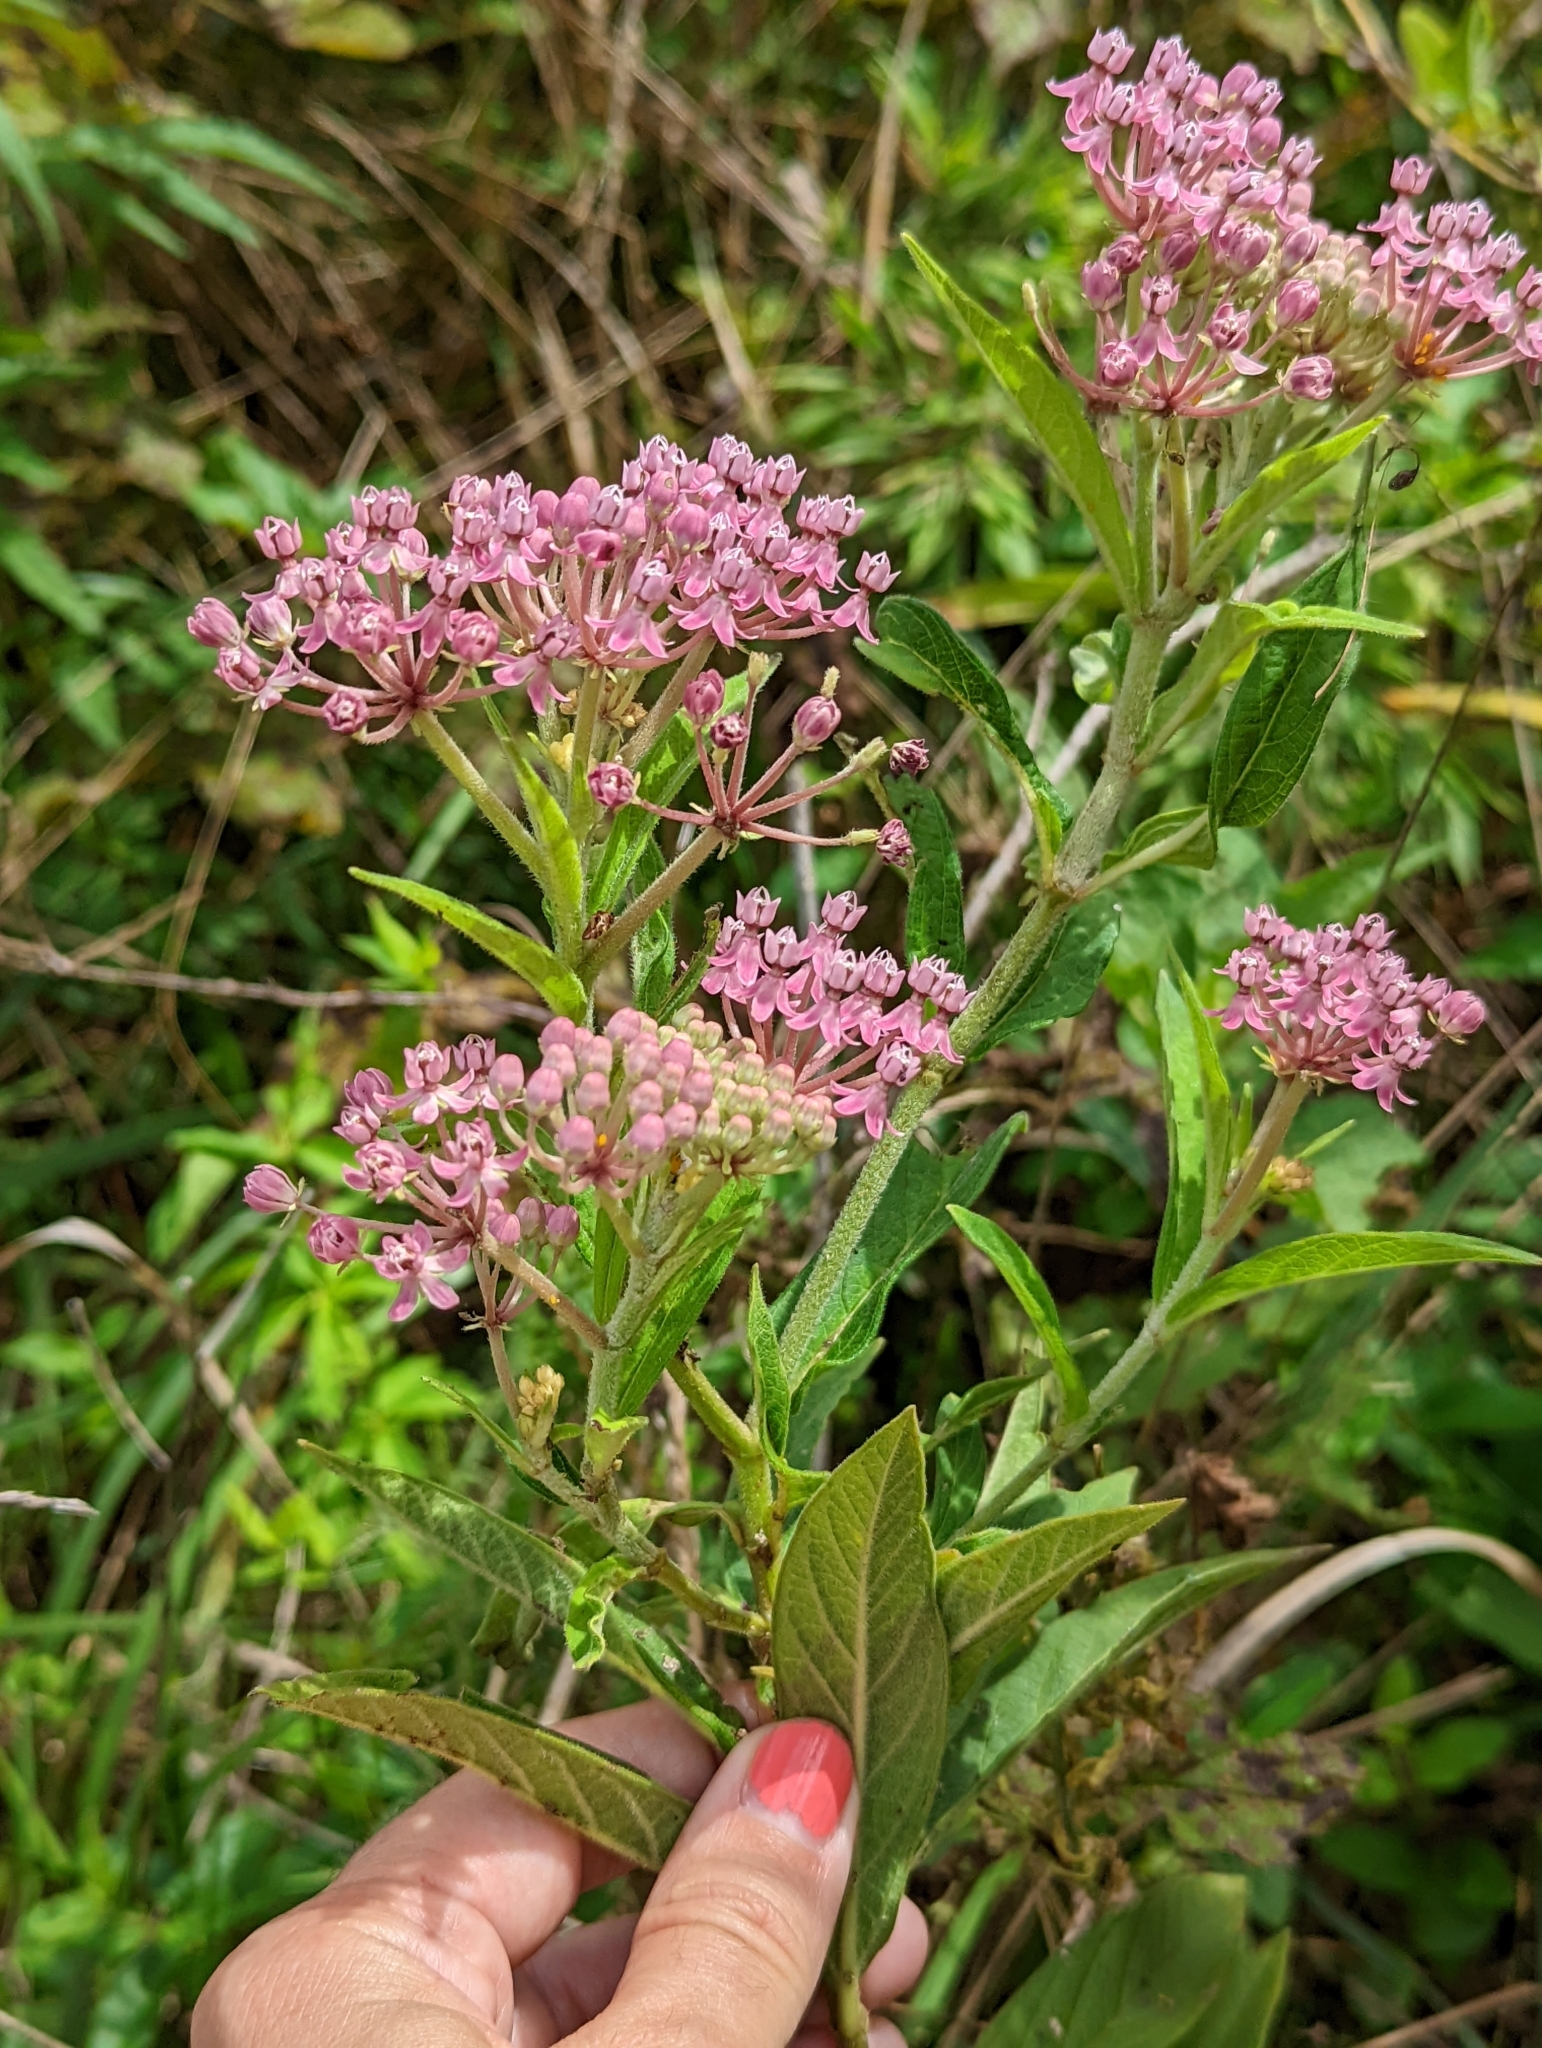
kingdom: Plantae
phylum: Tracheophyta
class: Magnoliopsida
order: Gentianales
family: Apocynaceae
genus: Asclepias
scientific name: Asclepias incarnata
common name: Swamp milkweed
